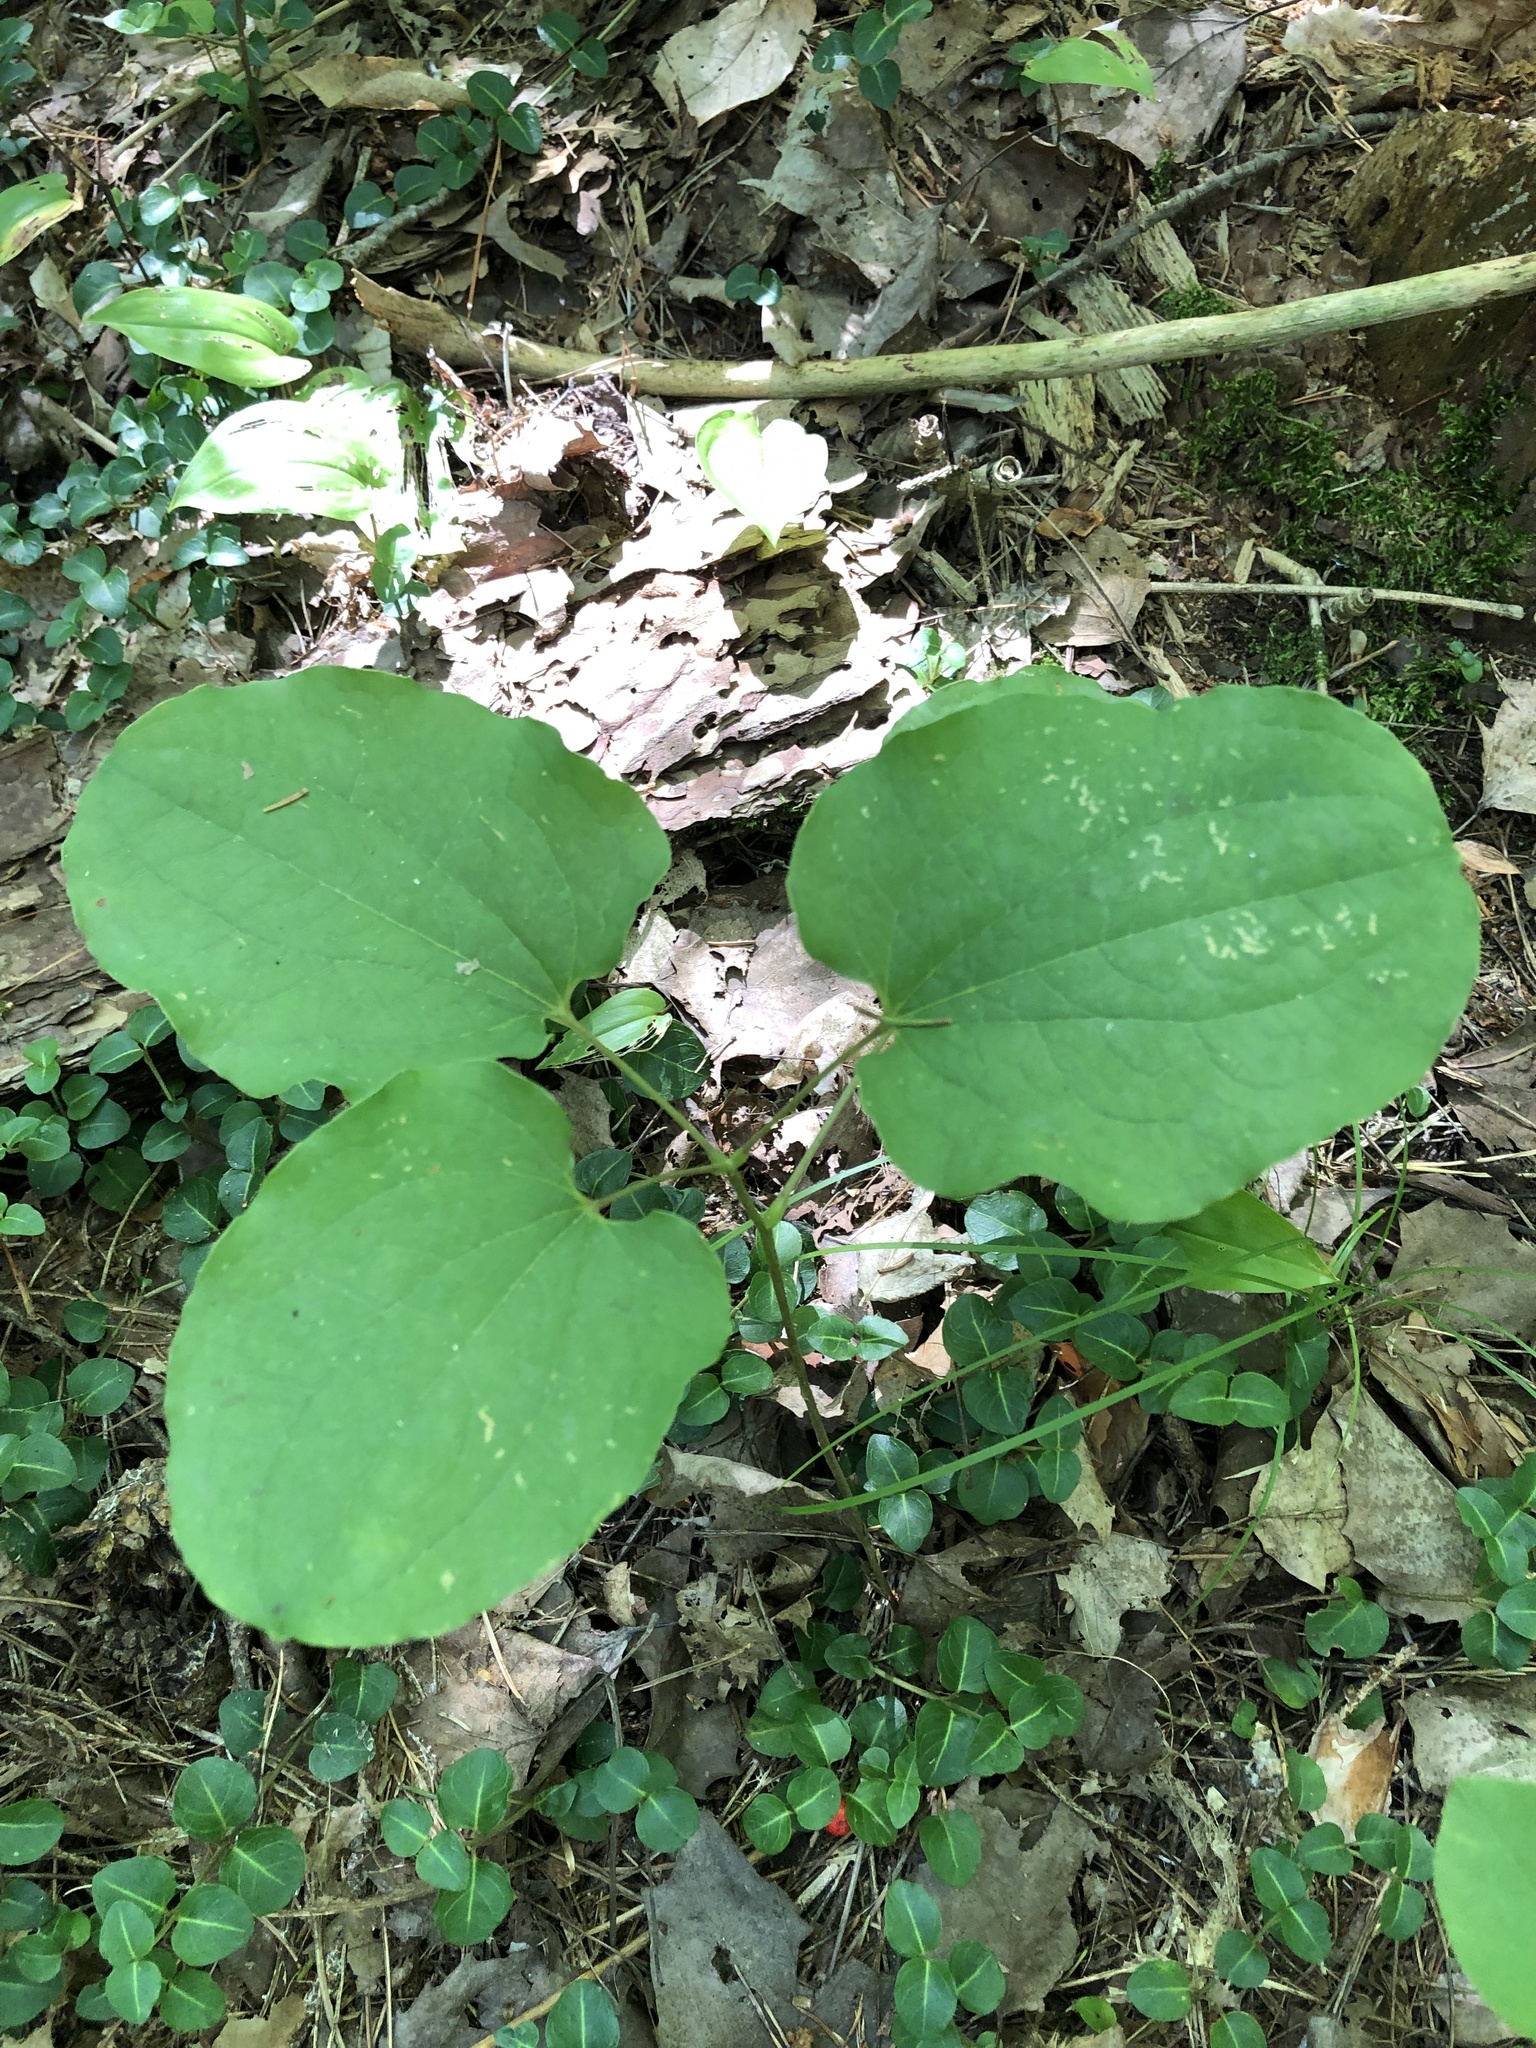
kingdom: Plantae
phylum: Tracheophyta
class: Liliopsida
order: Liliales
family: Smilacaceae
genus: Smilax
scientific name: Smilax herbacea
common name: Jacob's-ladder
